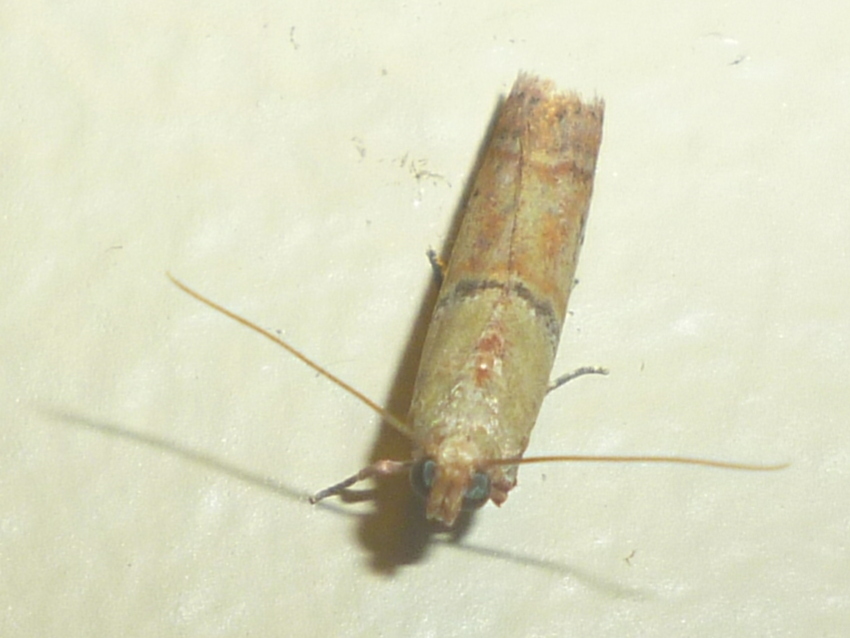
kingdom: Animalia
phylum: Arthropoda
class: Insecta
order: Lepidoptera
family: Pyralidae
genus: Atheloca
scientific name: Atheloca subrufella
